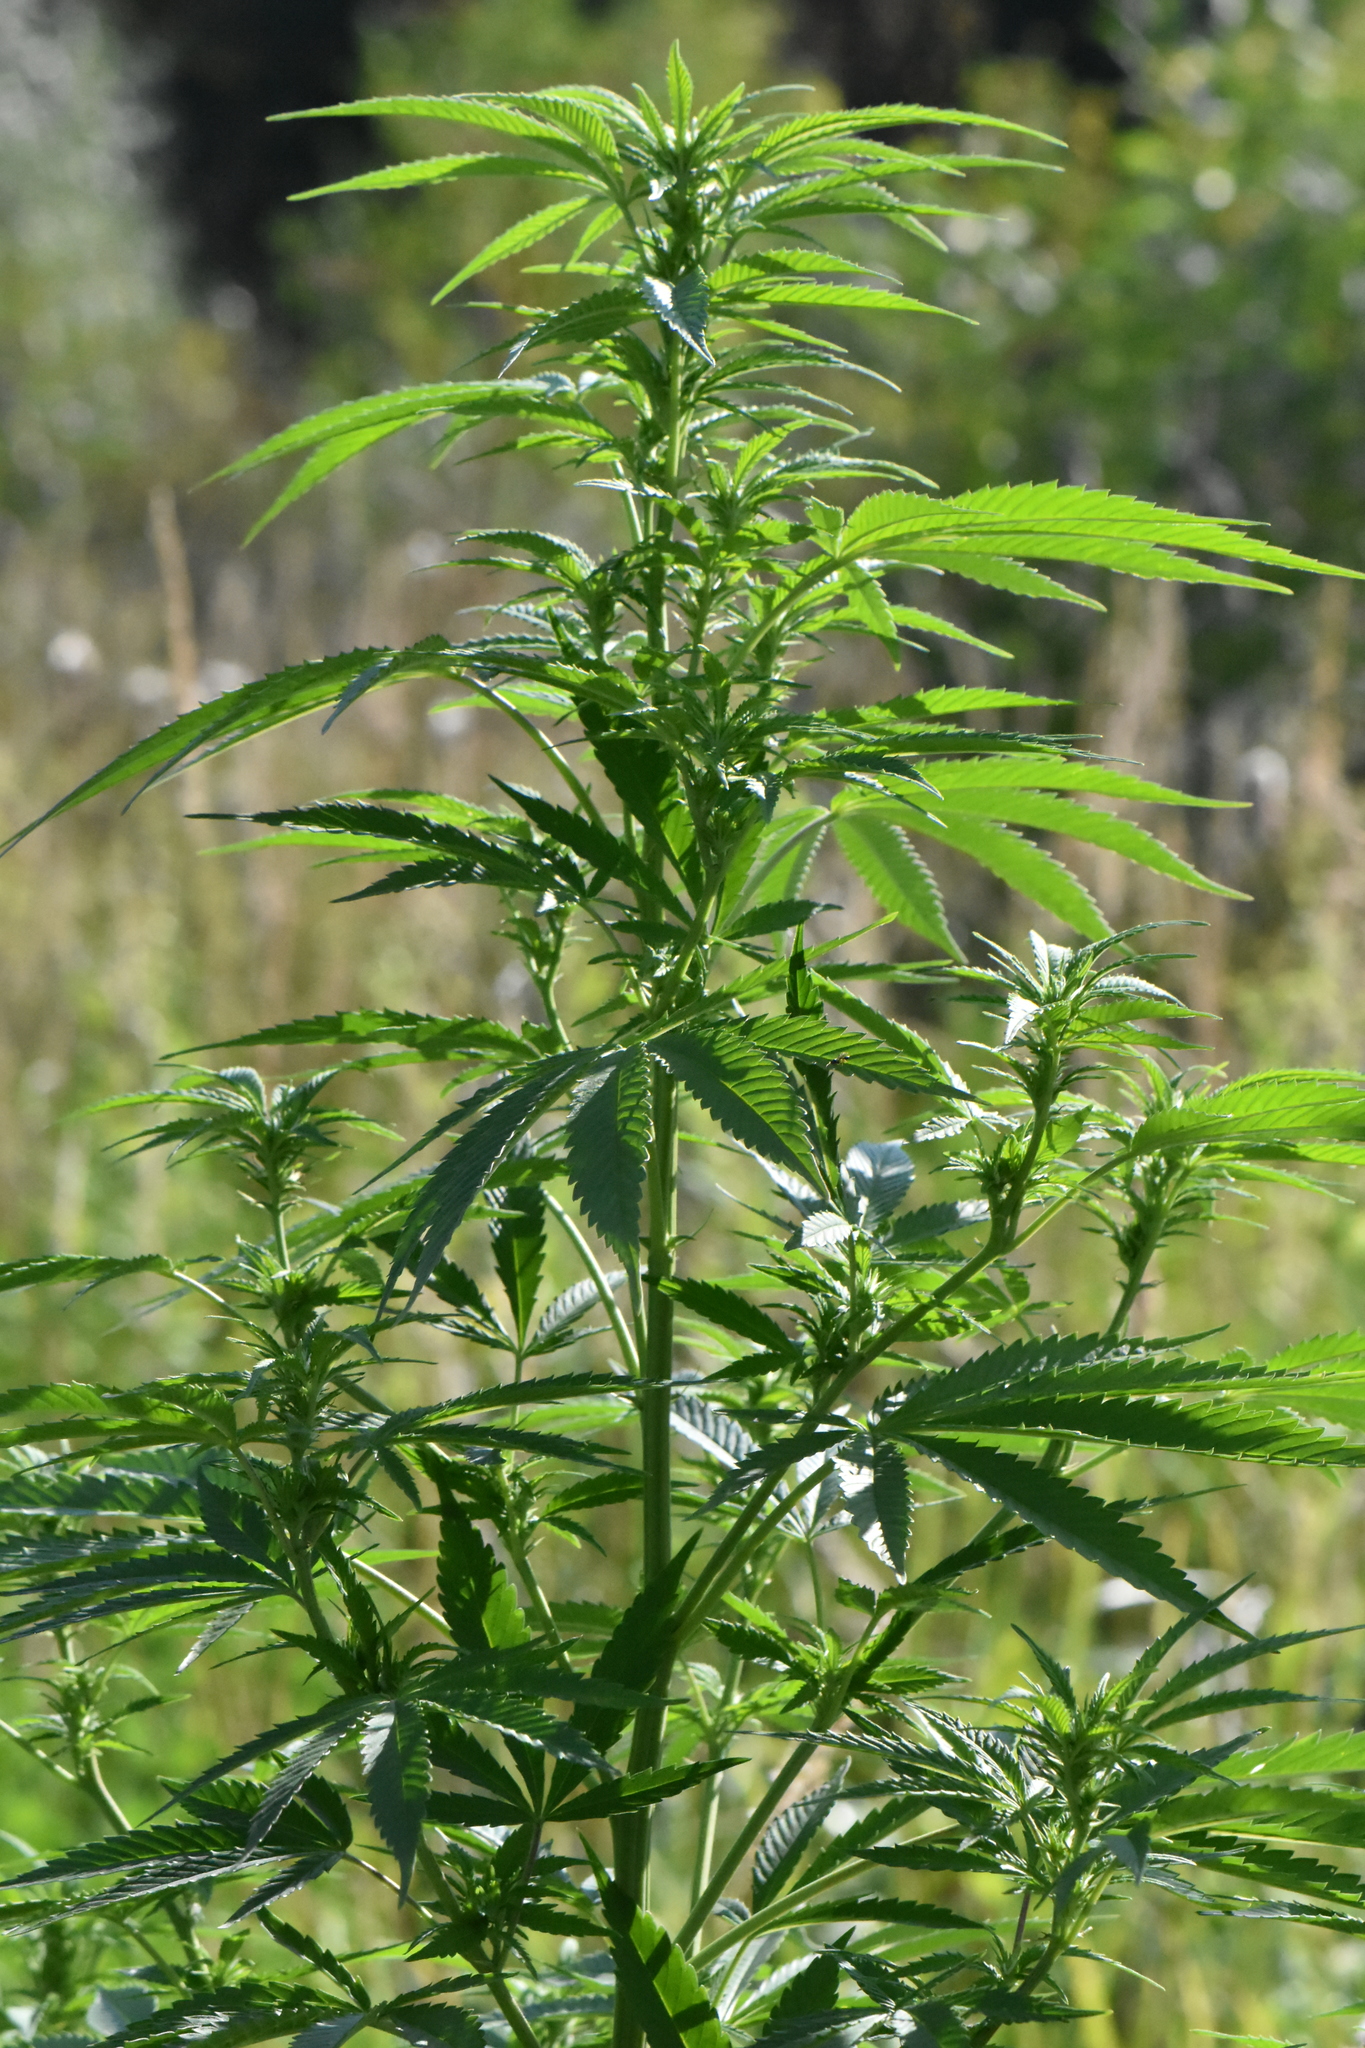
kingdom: Plantae
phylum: Tracheophyta
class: Magnoliopsida
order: Rosales
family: Cannabaceae
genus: Cannabis
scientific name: Cannabis sativa
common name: Hemp
